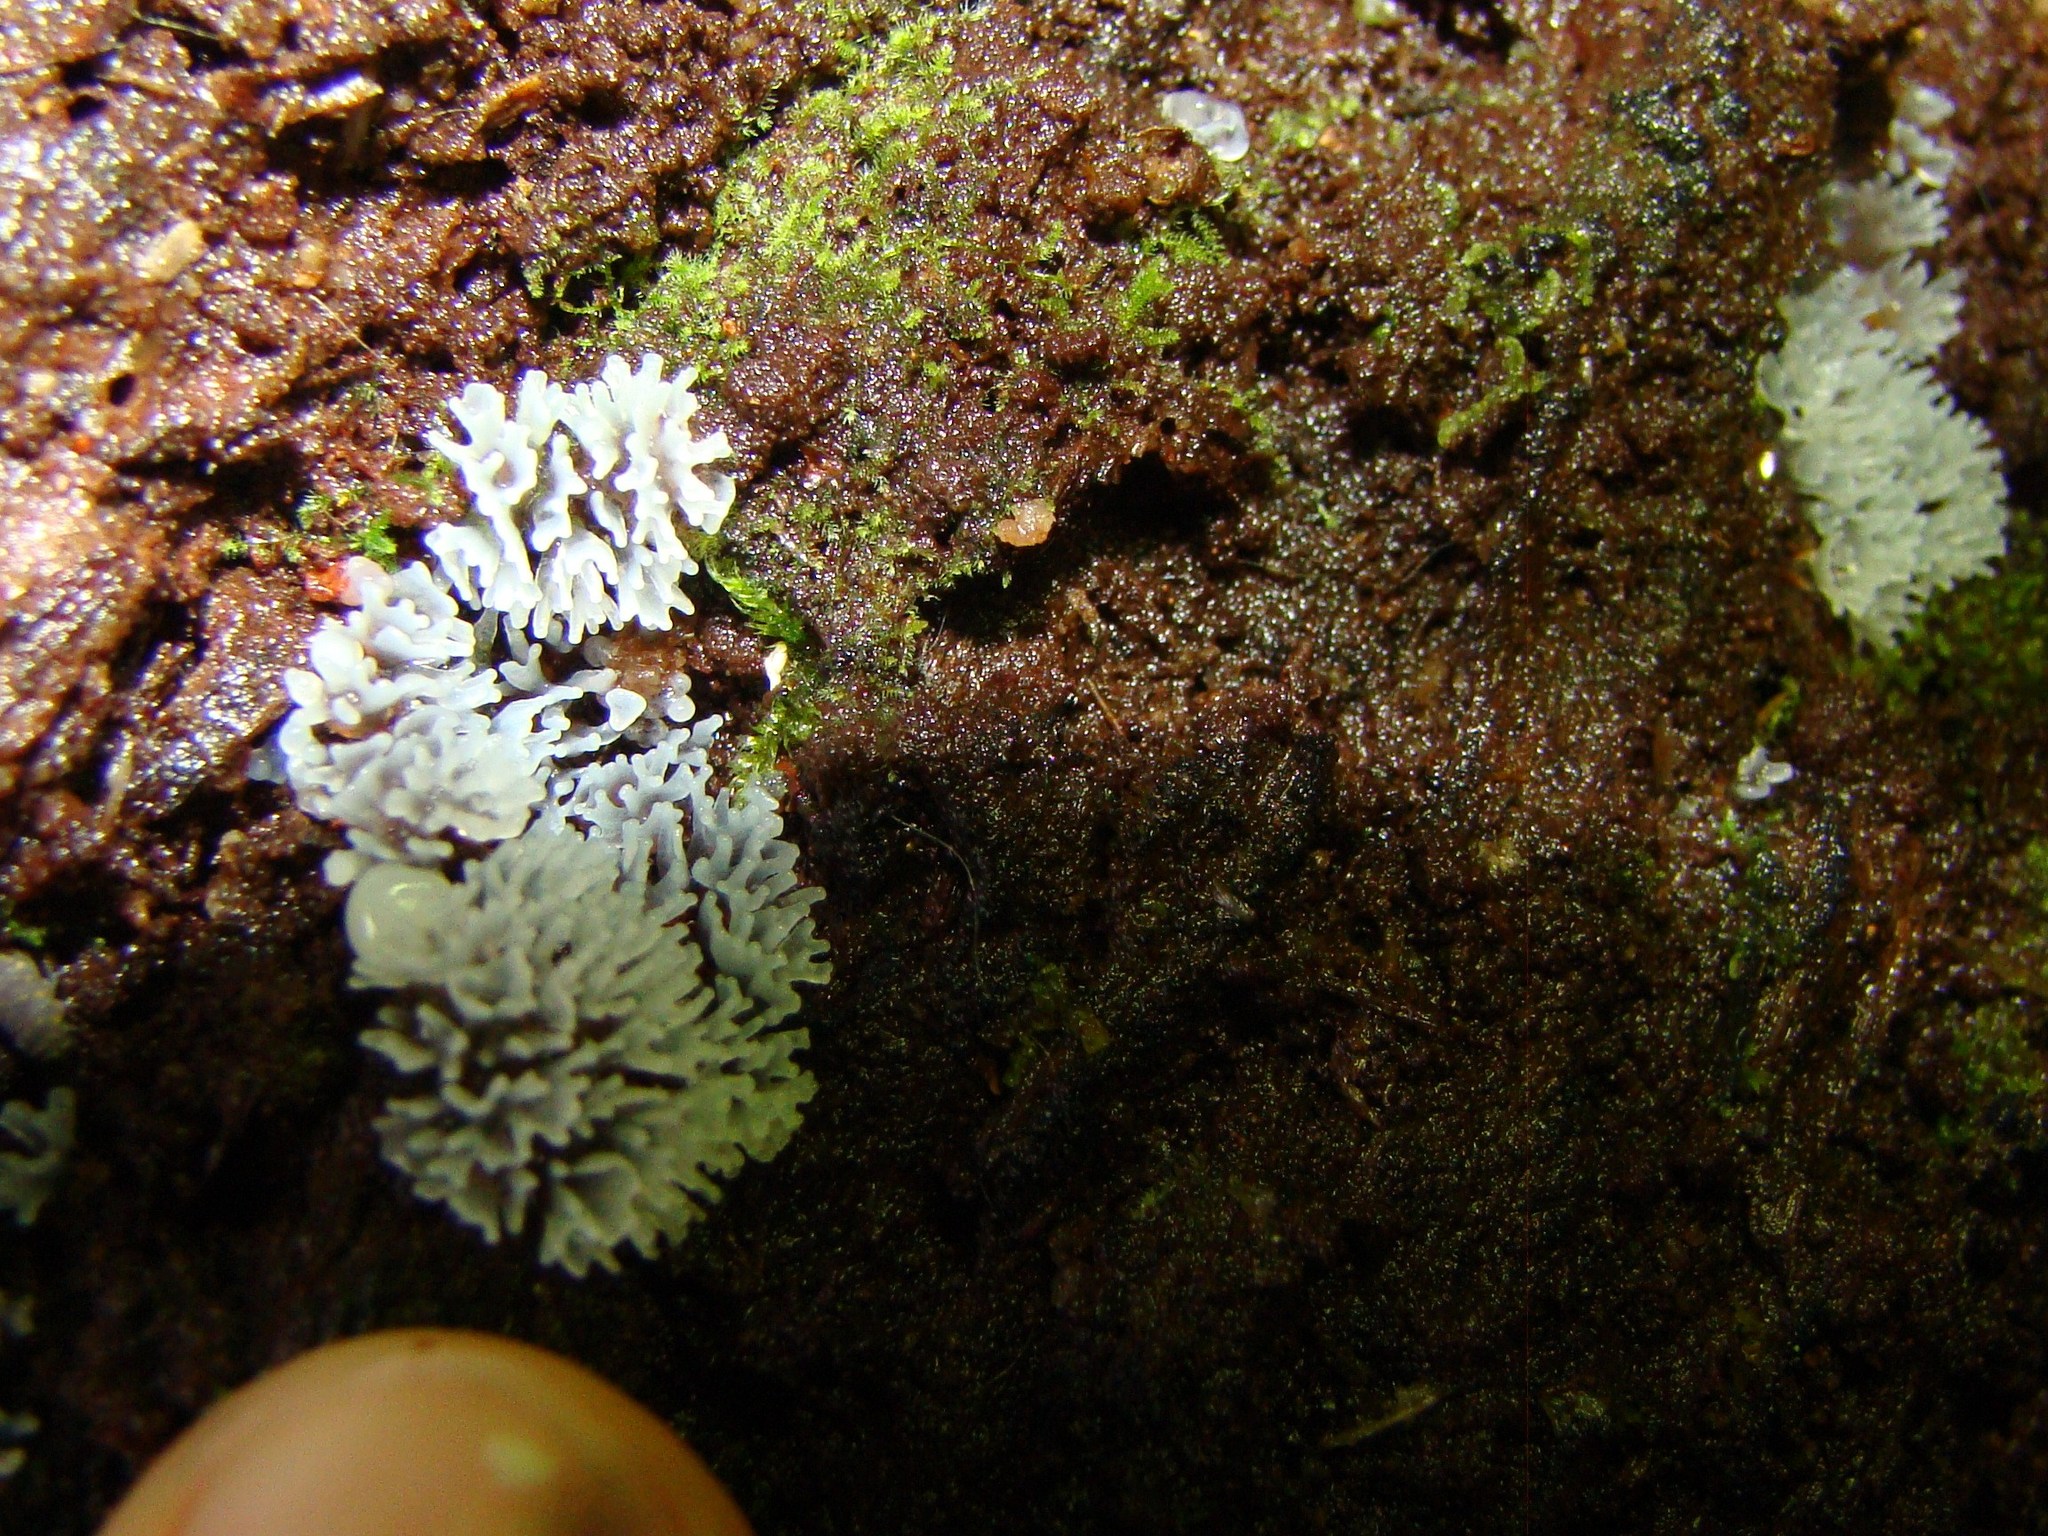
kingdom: Protozoa
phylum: Mycetozoa
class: Protosteliomycetes
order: Ceratiomyxales
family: Ceratiomyxaceae
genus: Ceratiomyxa
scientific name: Ceratiomyxa fruticulosa
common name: Honeycomb coral slime mold
